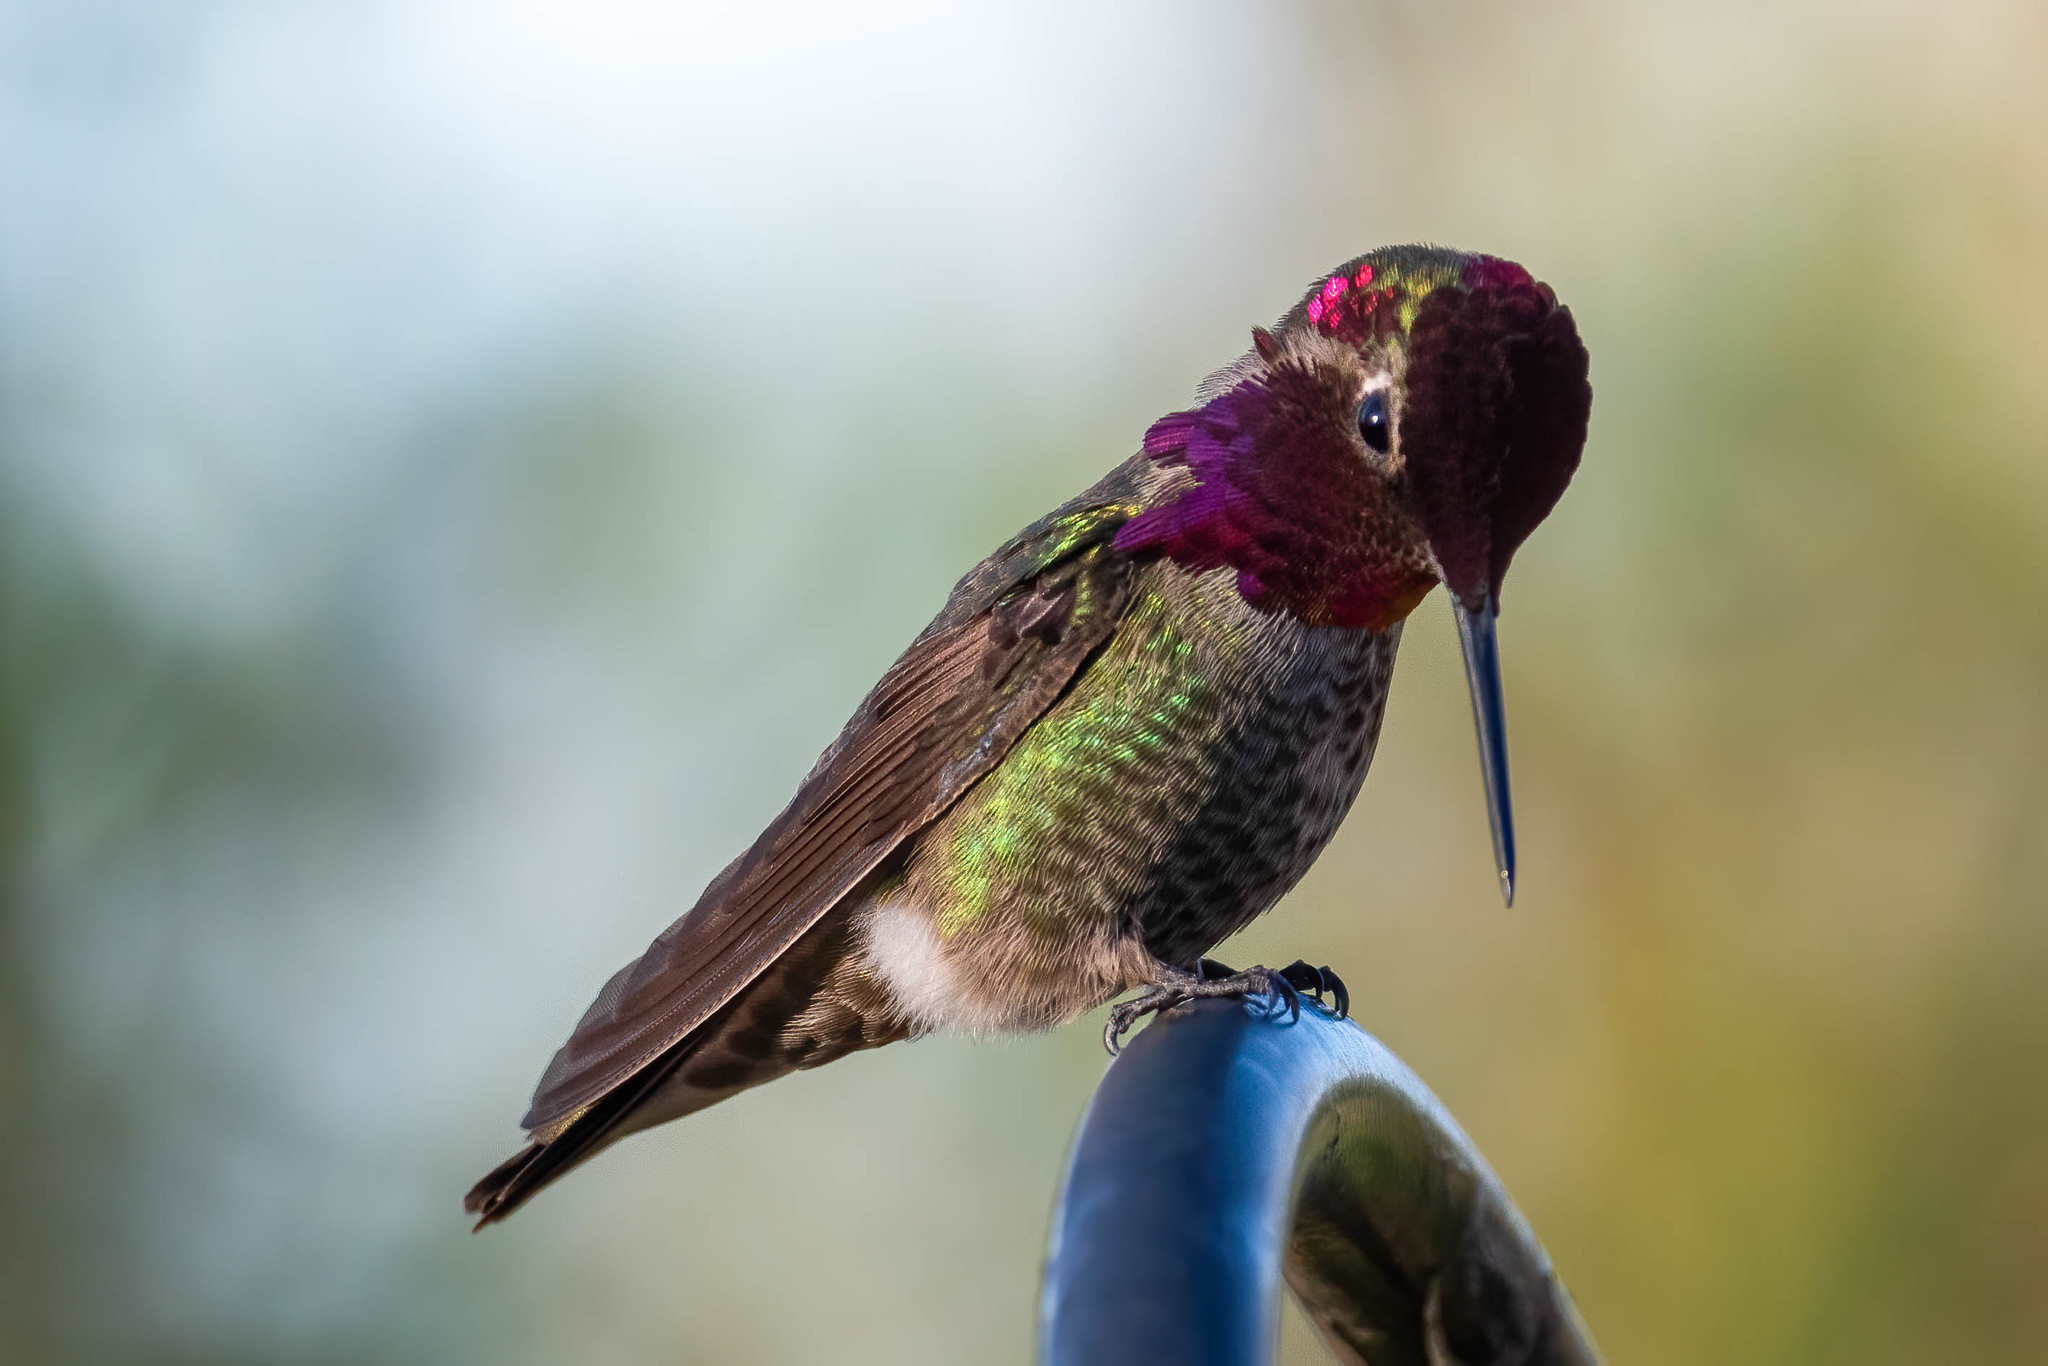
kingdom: Animalia
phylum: Chordata
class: Aves
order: Apodiformes
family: Trochilidae
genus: Calypte
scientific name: Calypte anna
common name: Anna's hummingbird
